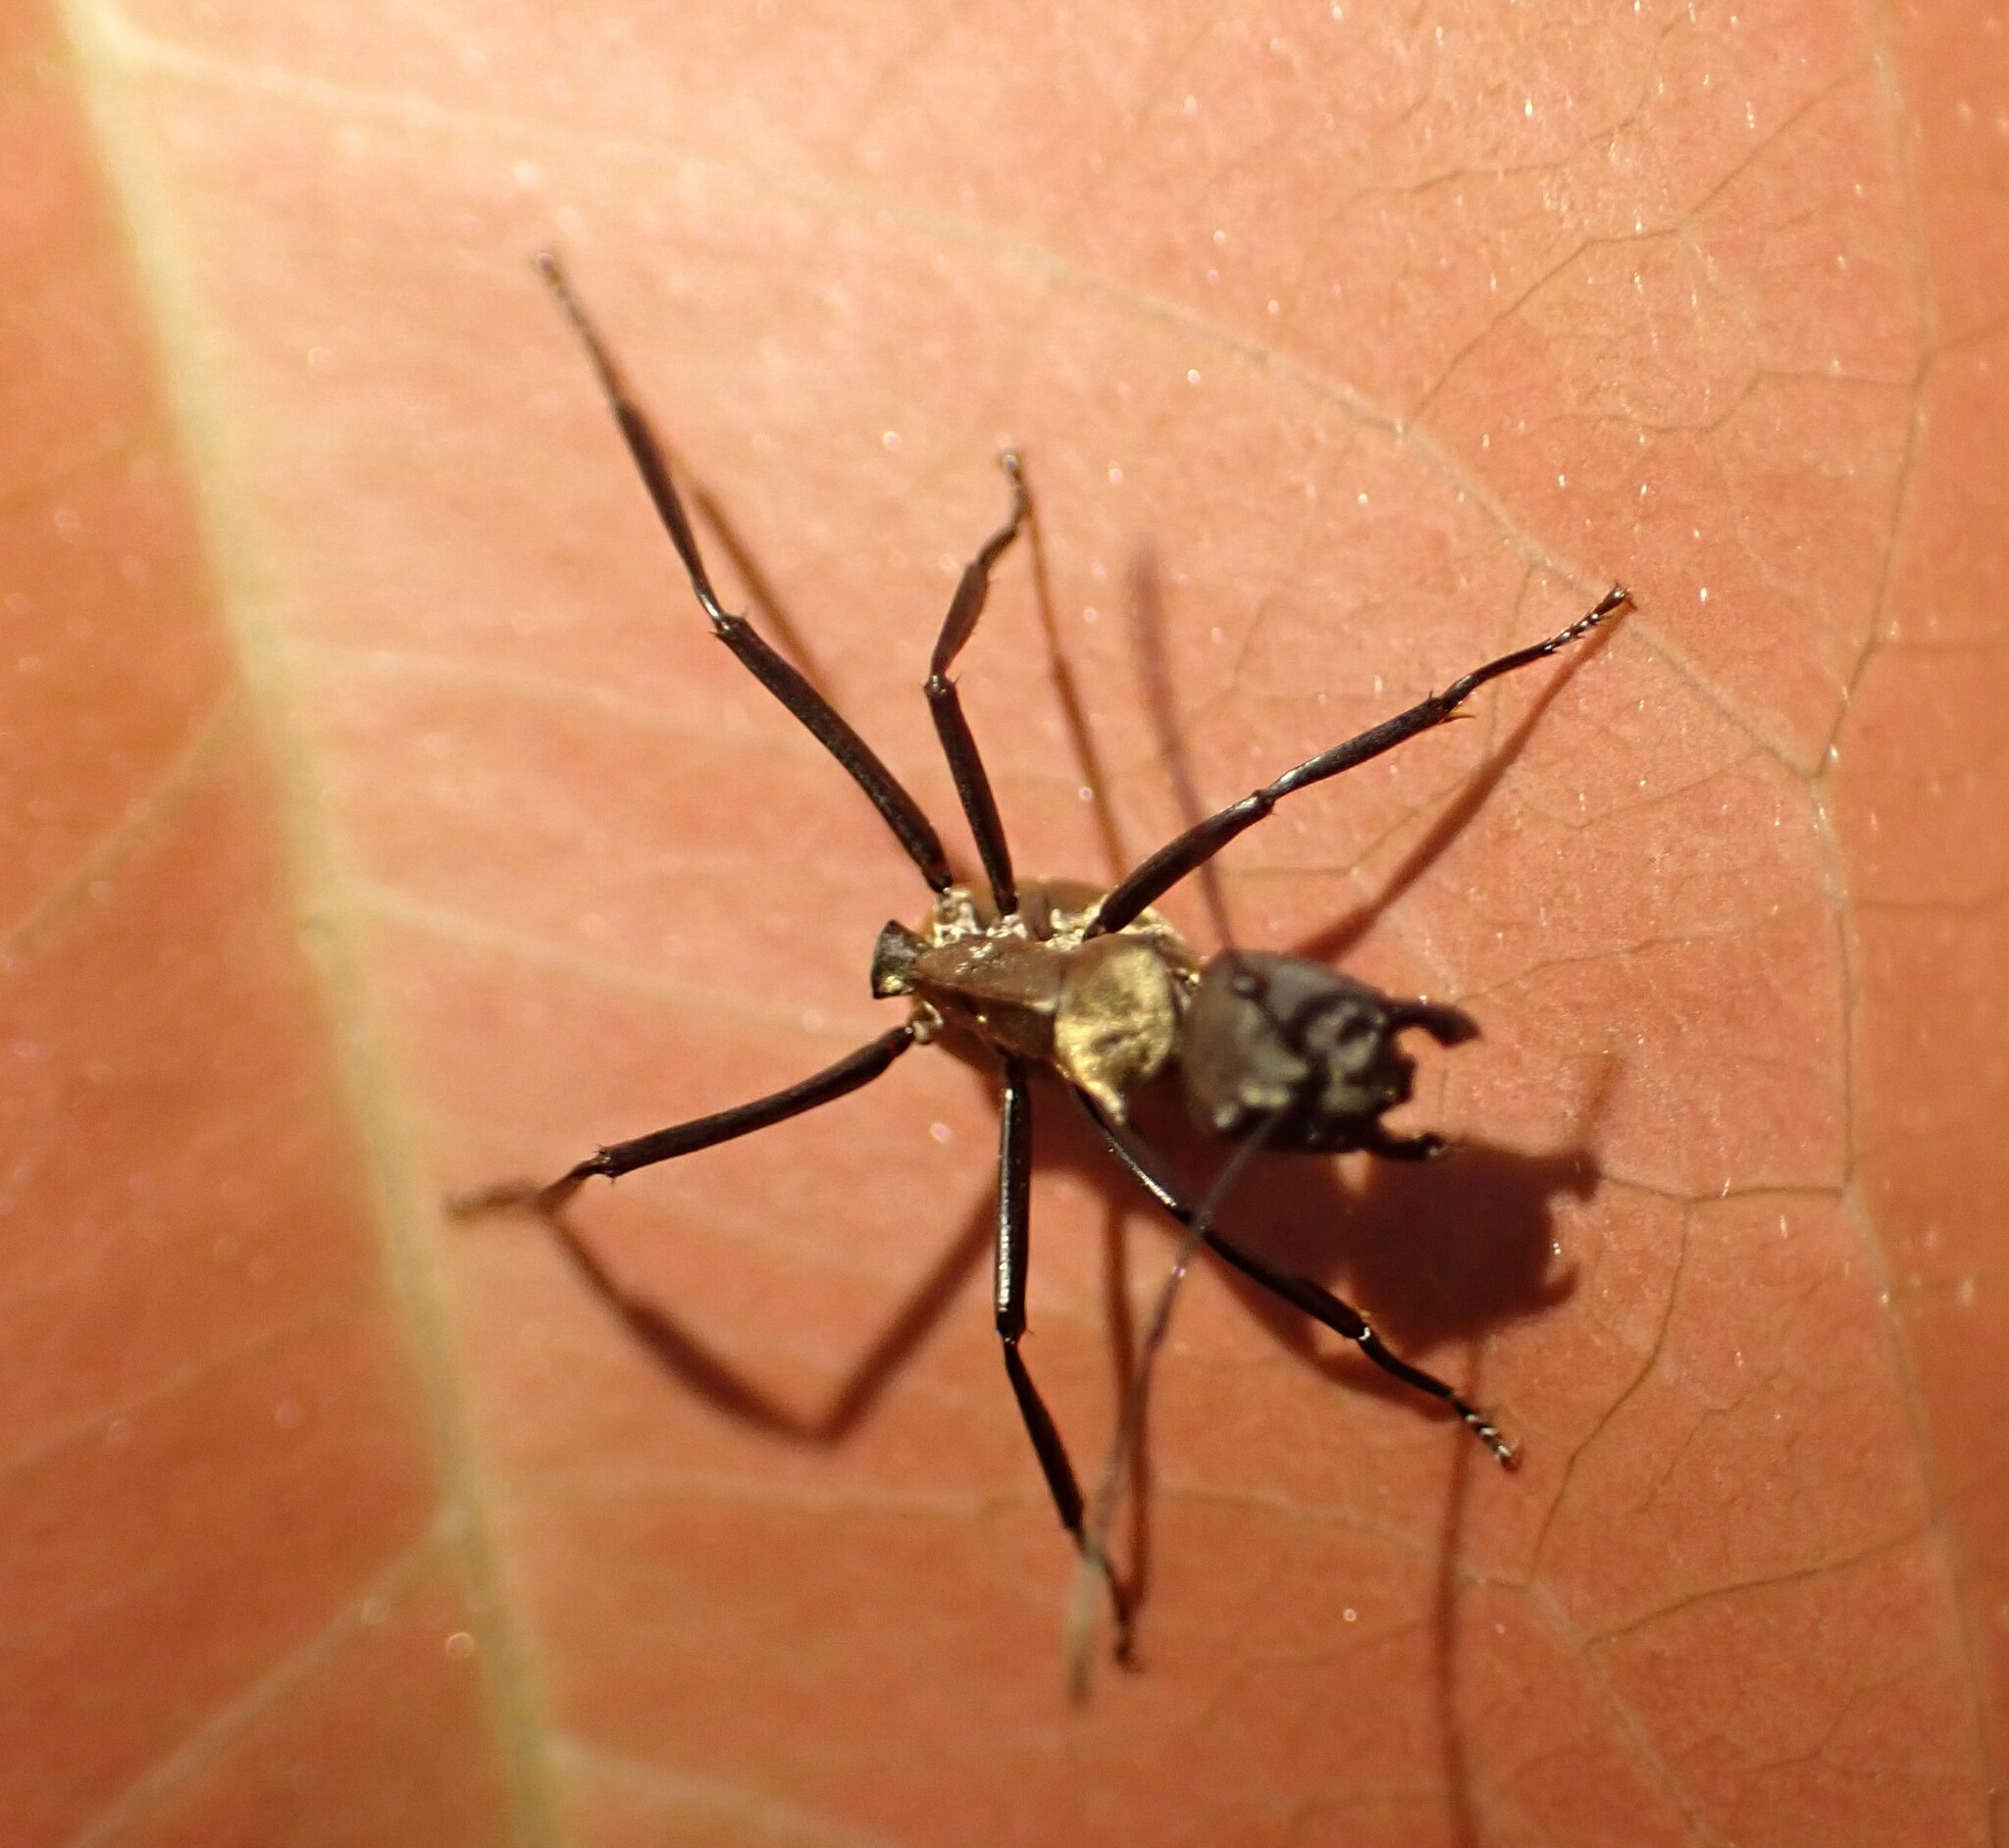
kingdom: Animalia
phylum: Arthropoda
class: Insecta
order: Hymenoptera
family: Formicidae
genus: Camponotus
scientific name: Camponotus sericeiventris
